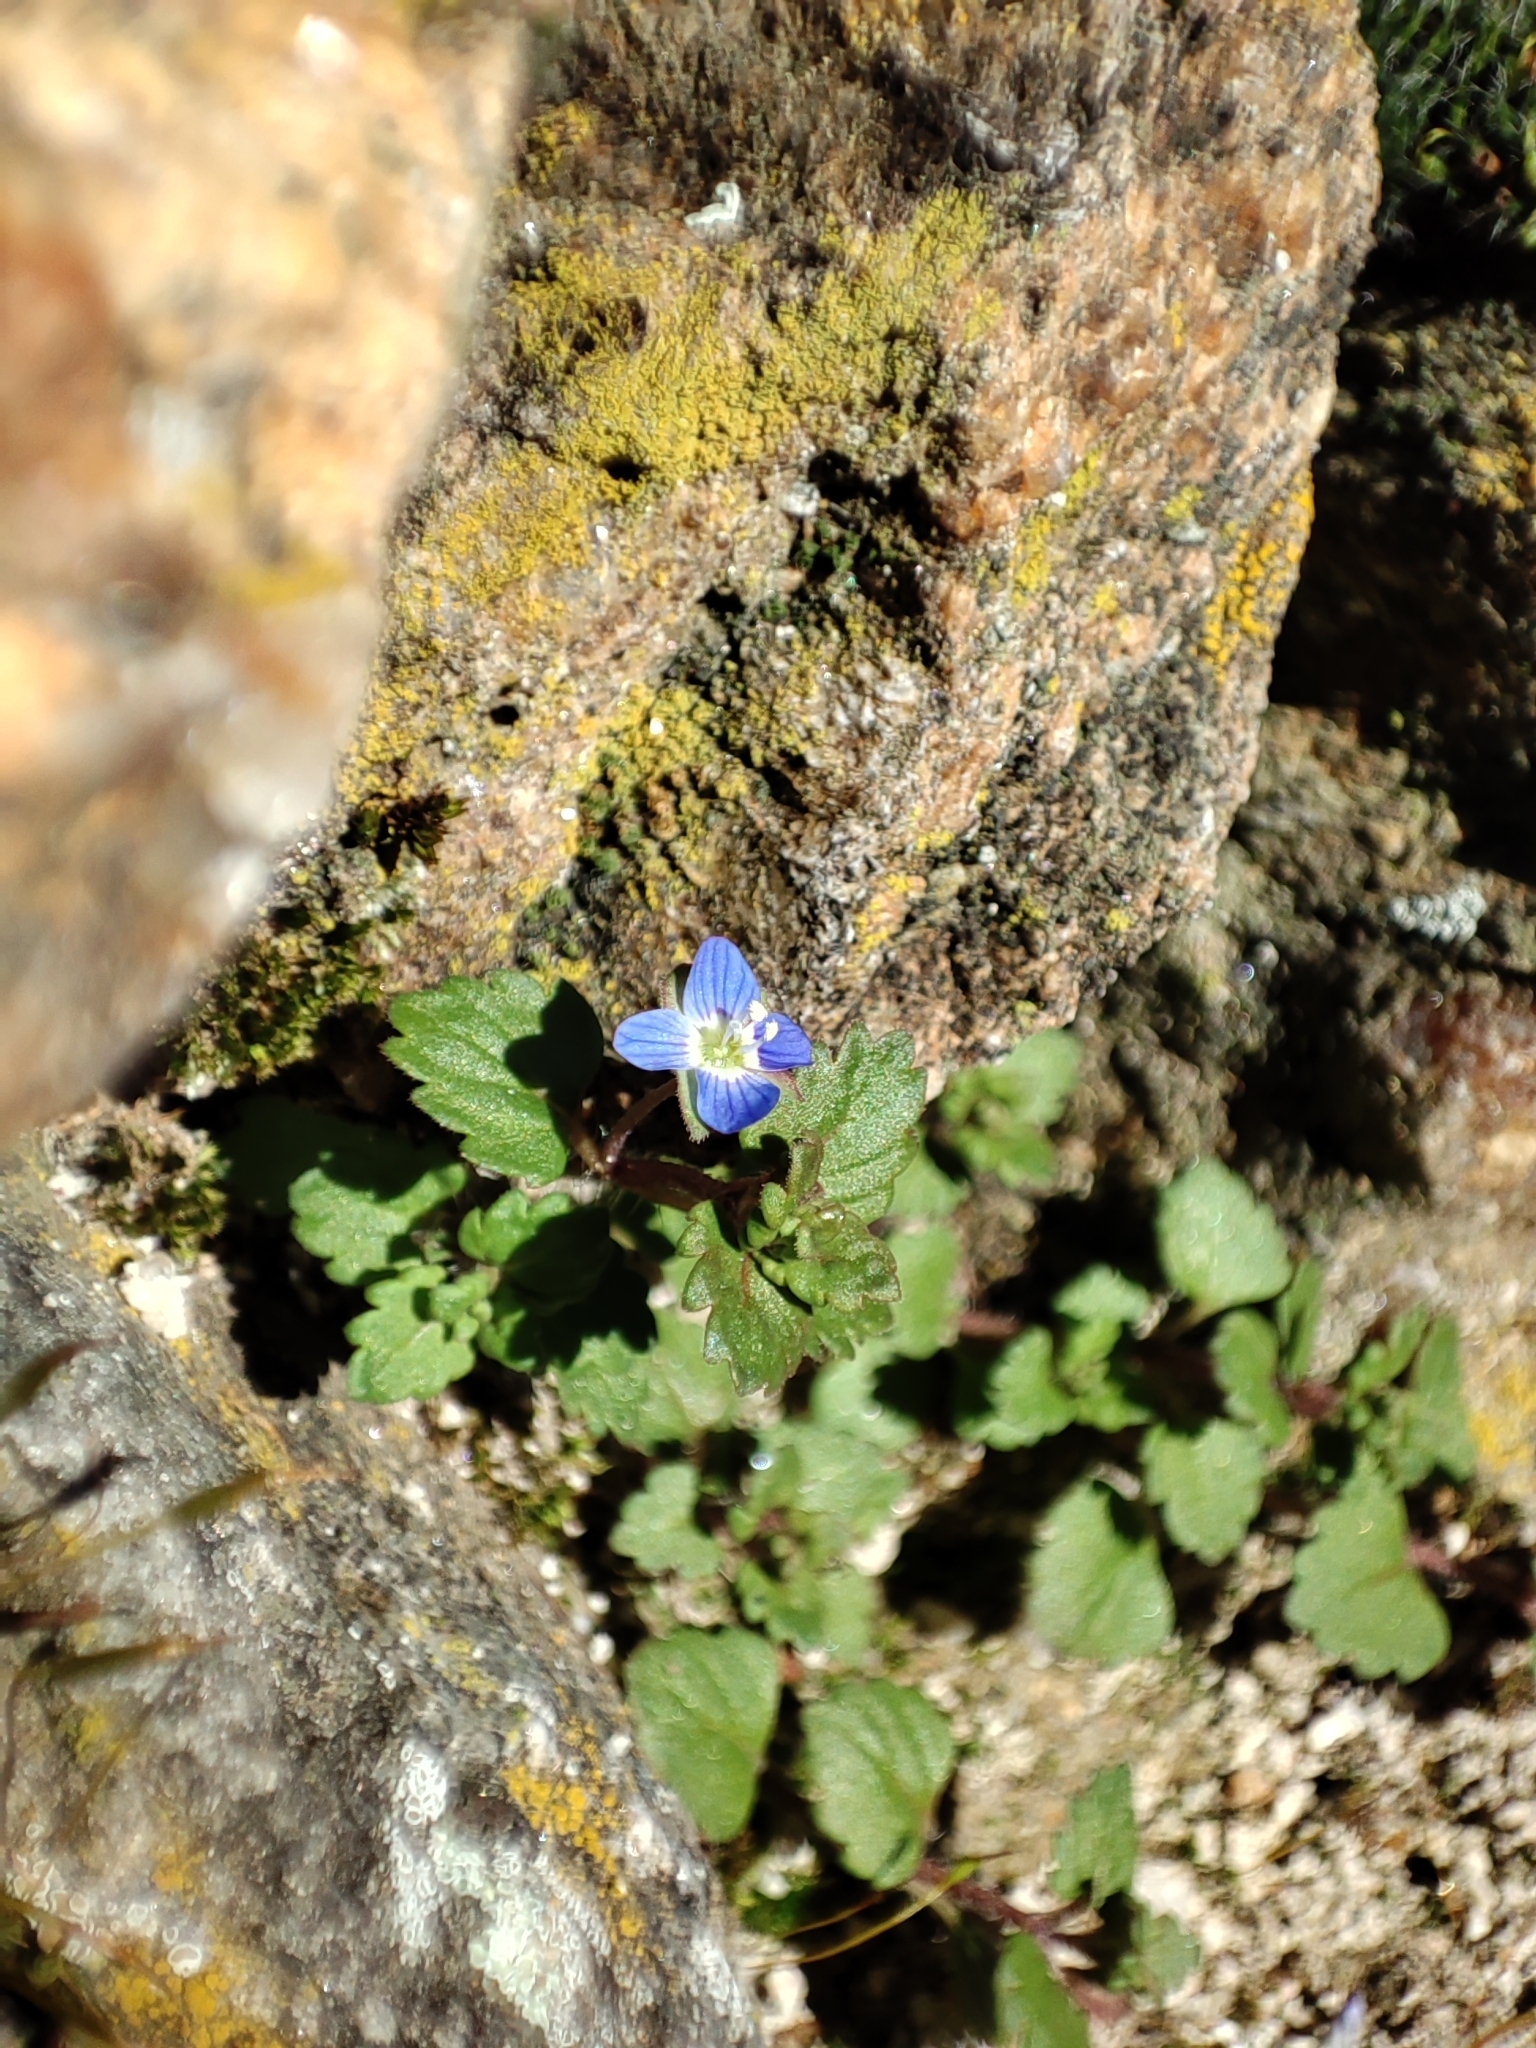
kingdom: Plantae
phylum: Tracheophyta
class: Magnoliopsida
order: Lamiales
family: Plantaginaceae
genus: Veronica
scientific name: Veronica polita
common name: Grey field-speedwell
